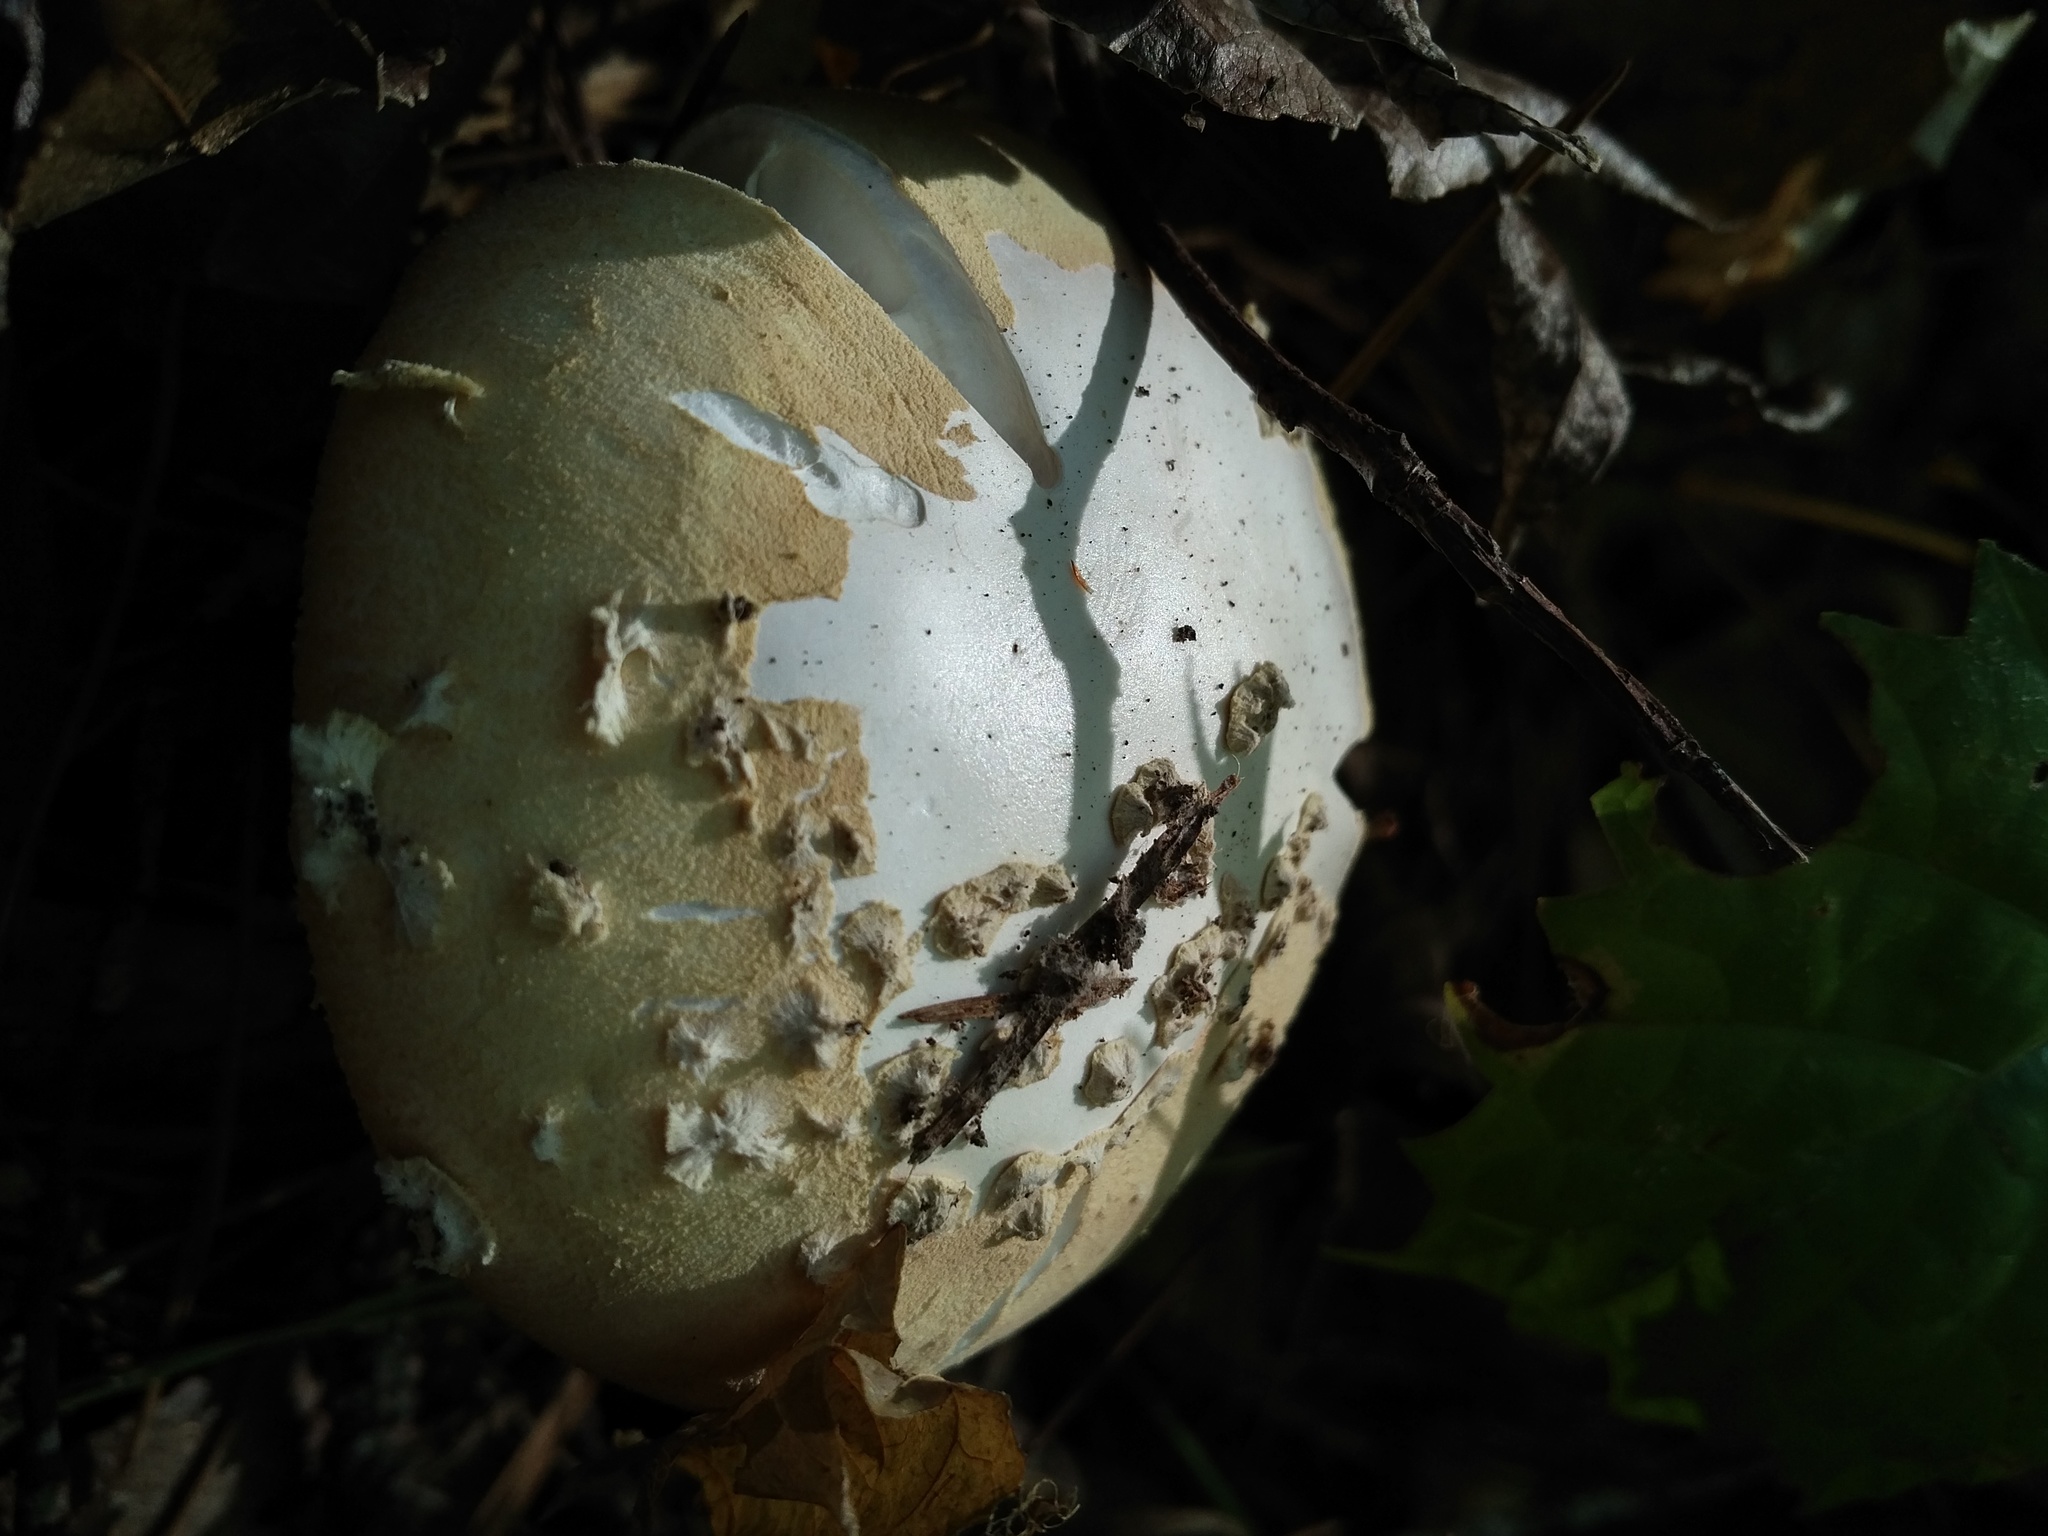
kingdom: Fungi
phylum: Basidiomycota
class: Agaricomycetes
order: Agaricales
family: Amanitaceae
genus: Amanita
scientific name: Amanita roseotincta
